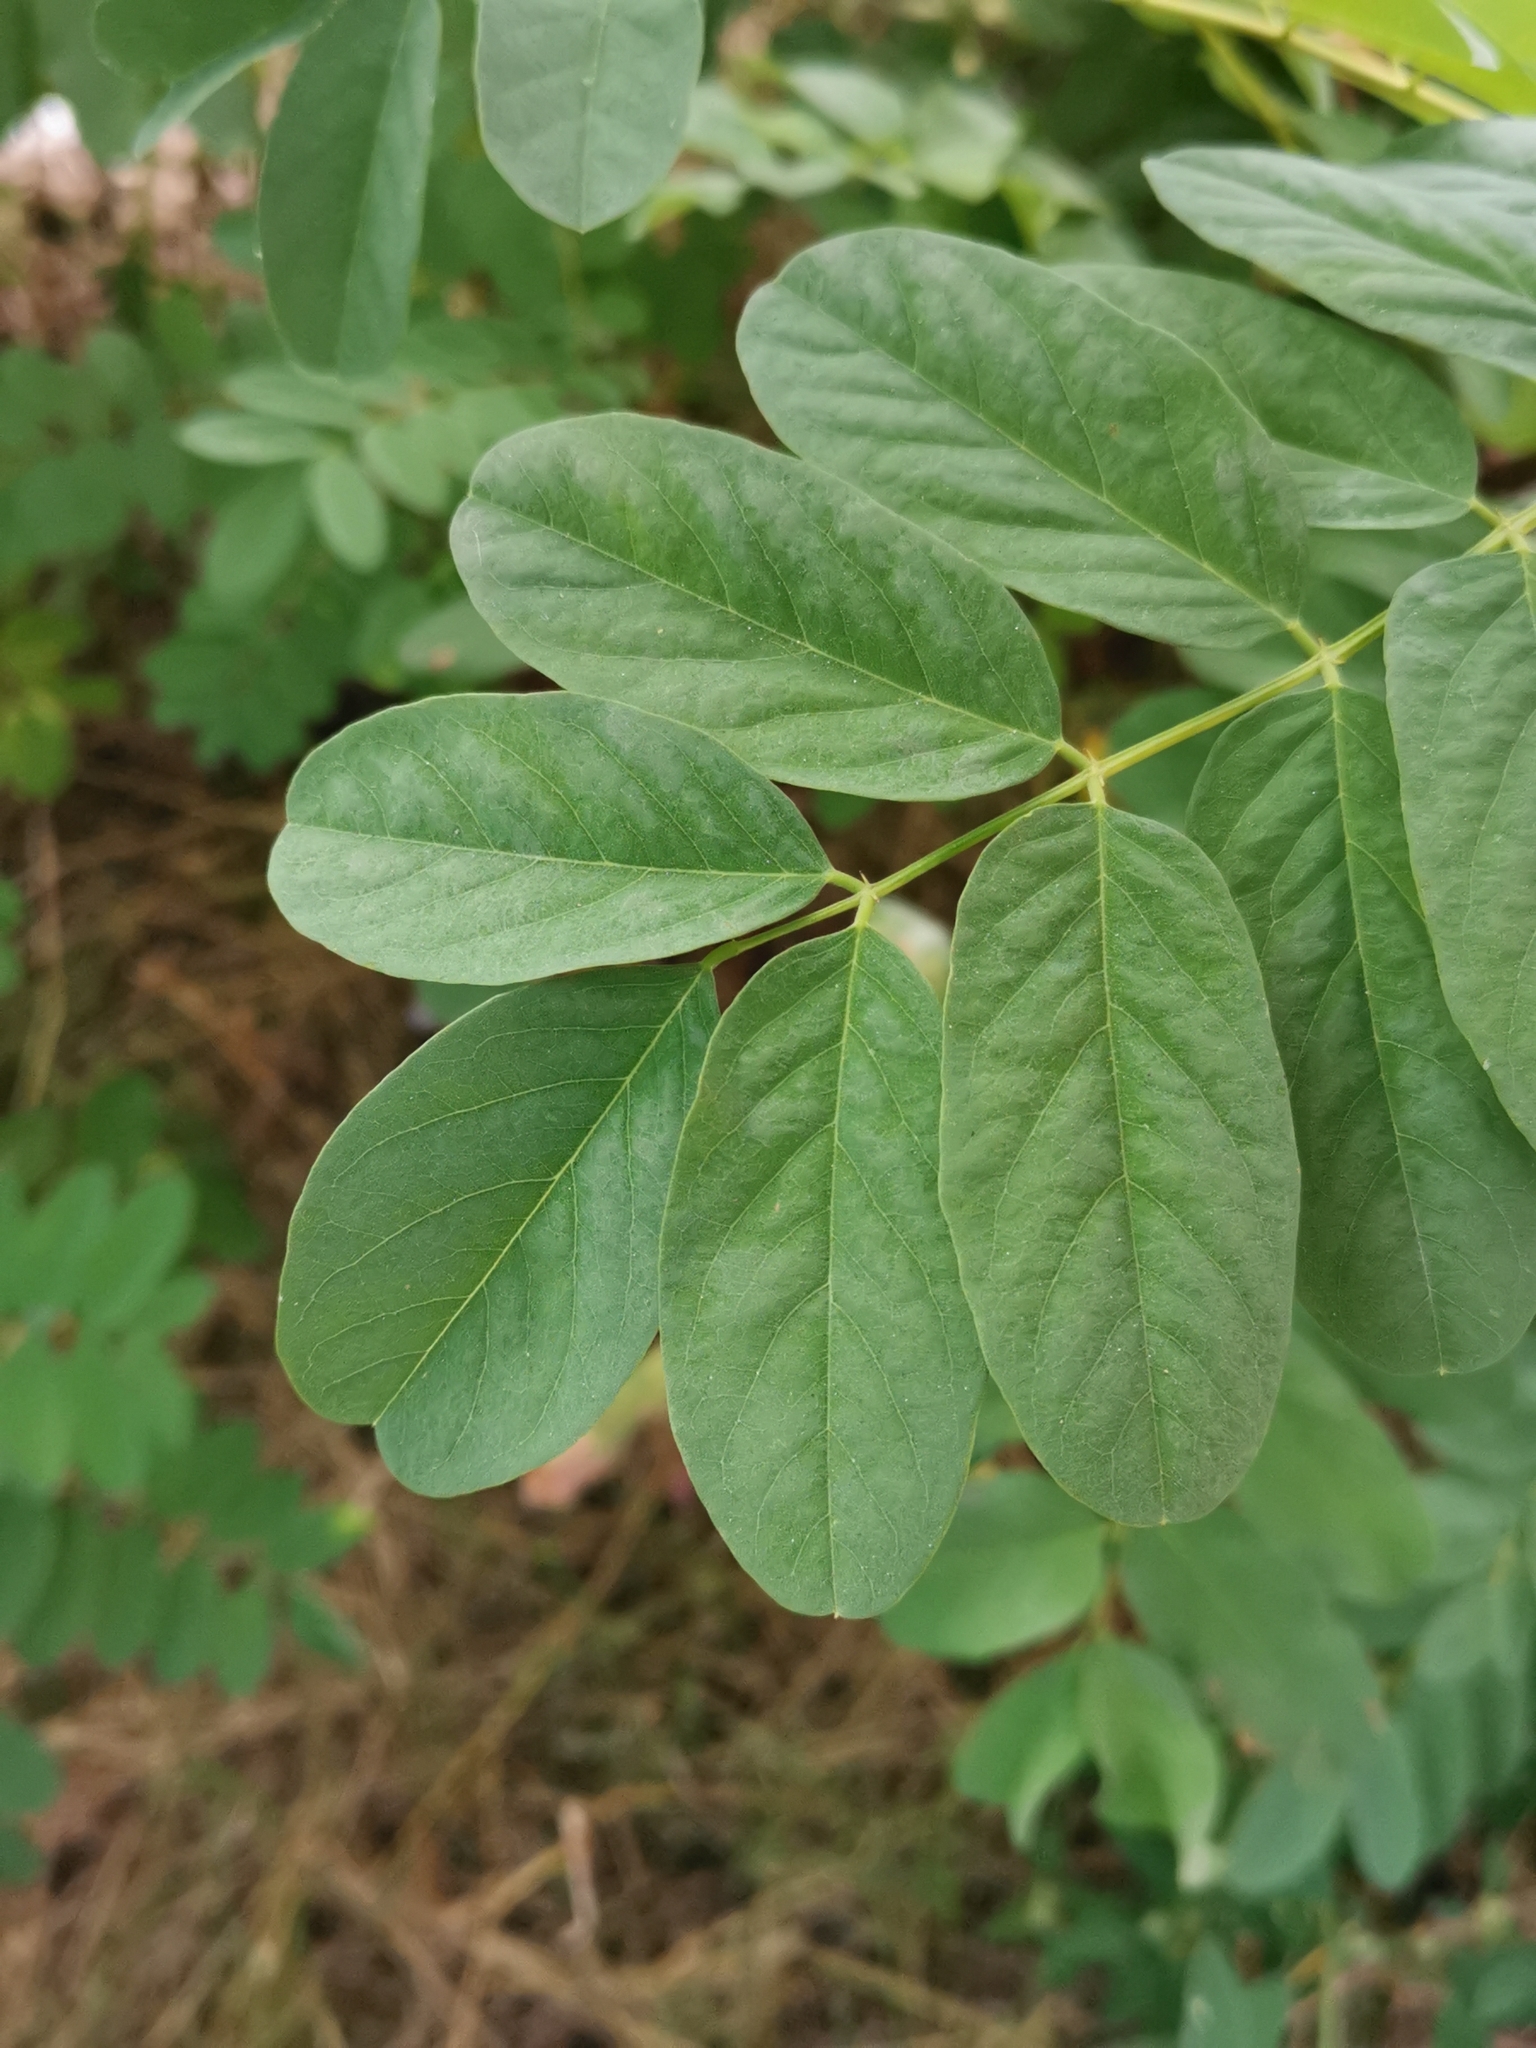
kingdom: Plantae
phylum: Tracheophyta
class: Magnoliopsida
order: Fabales
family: Fabaceae
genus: Robinia
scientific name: Robinia pseudoacacia
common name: Black locust
